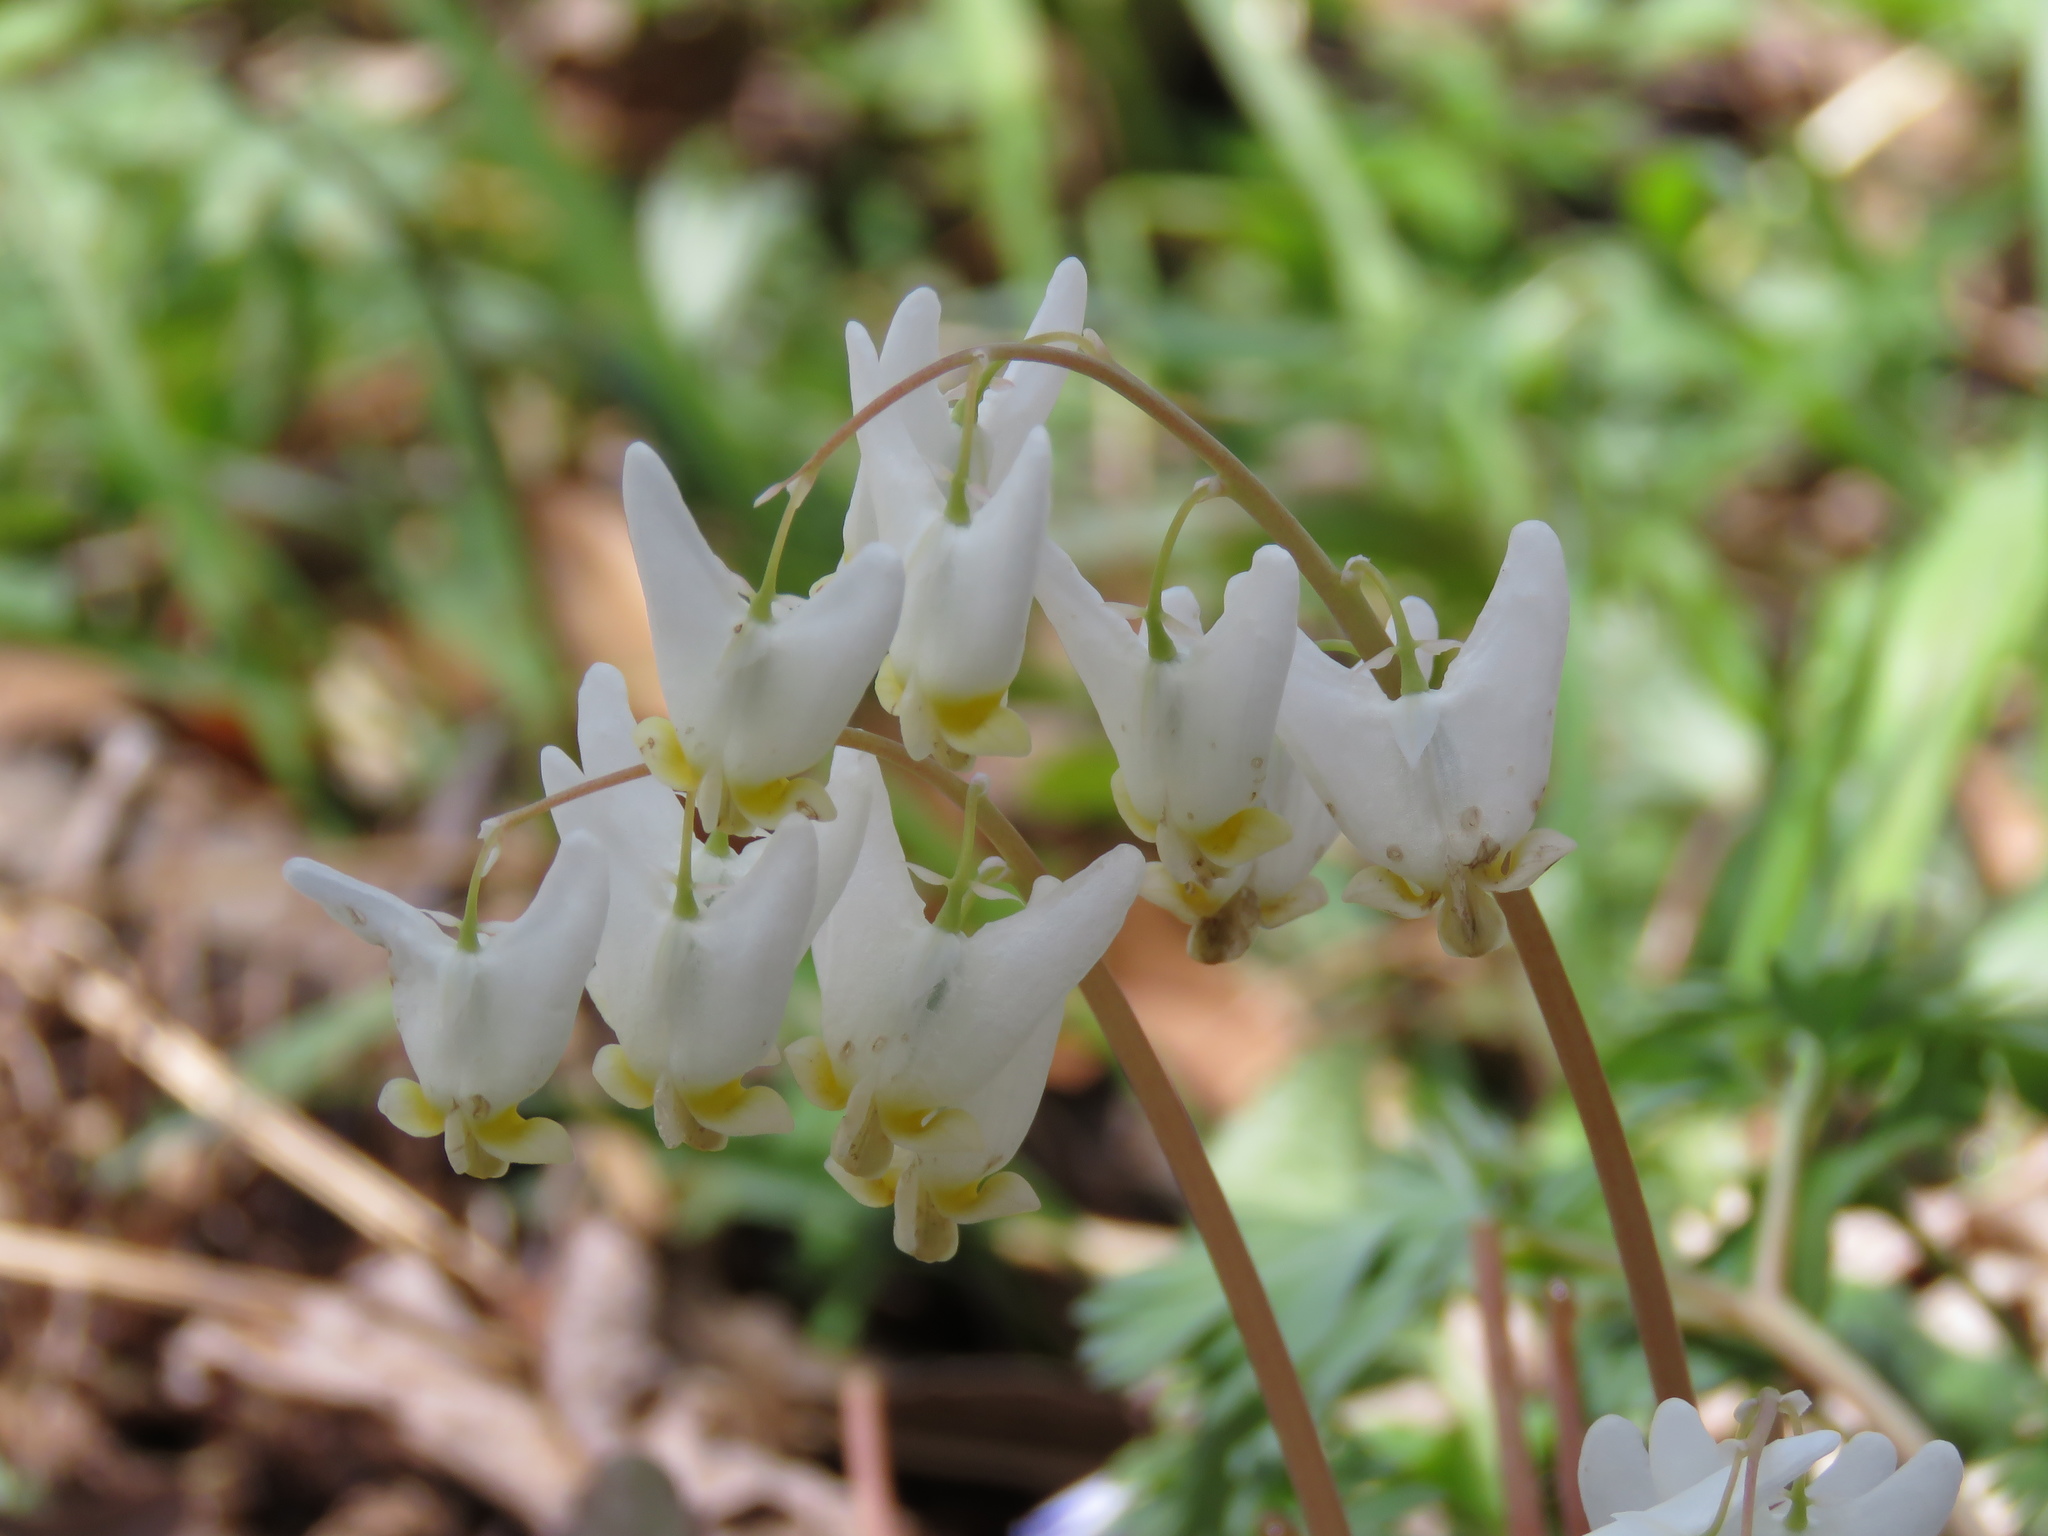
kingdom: Plantae
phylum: Tracheophyta
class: Magnoliopsida
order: Ranunculales
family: Papaveraceae
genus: Dicentra
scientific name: Dicentra cucullaria
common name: Dutchman's breeches
